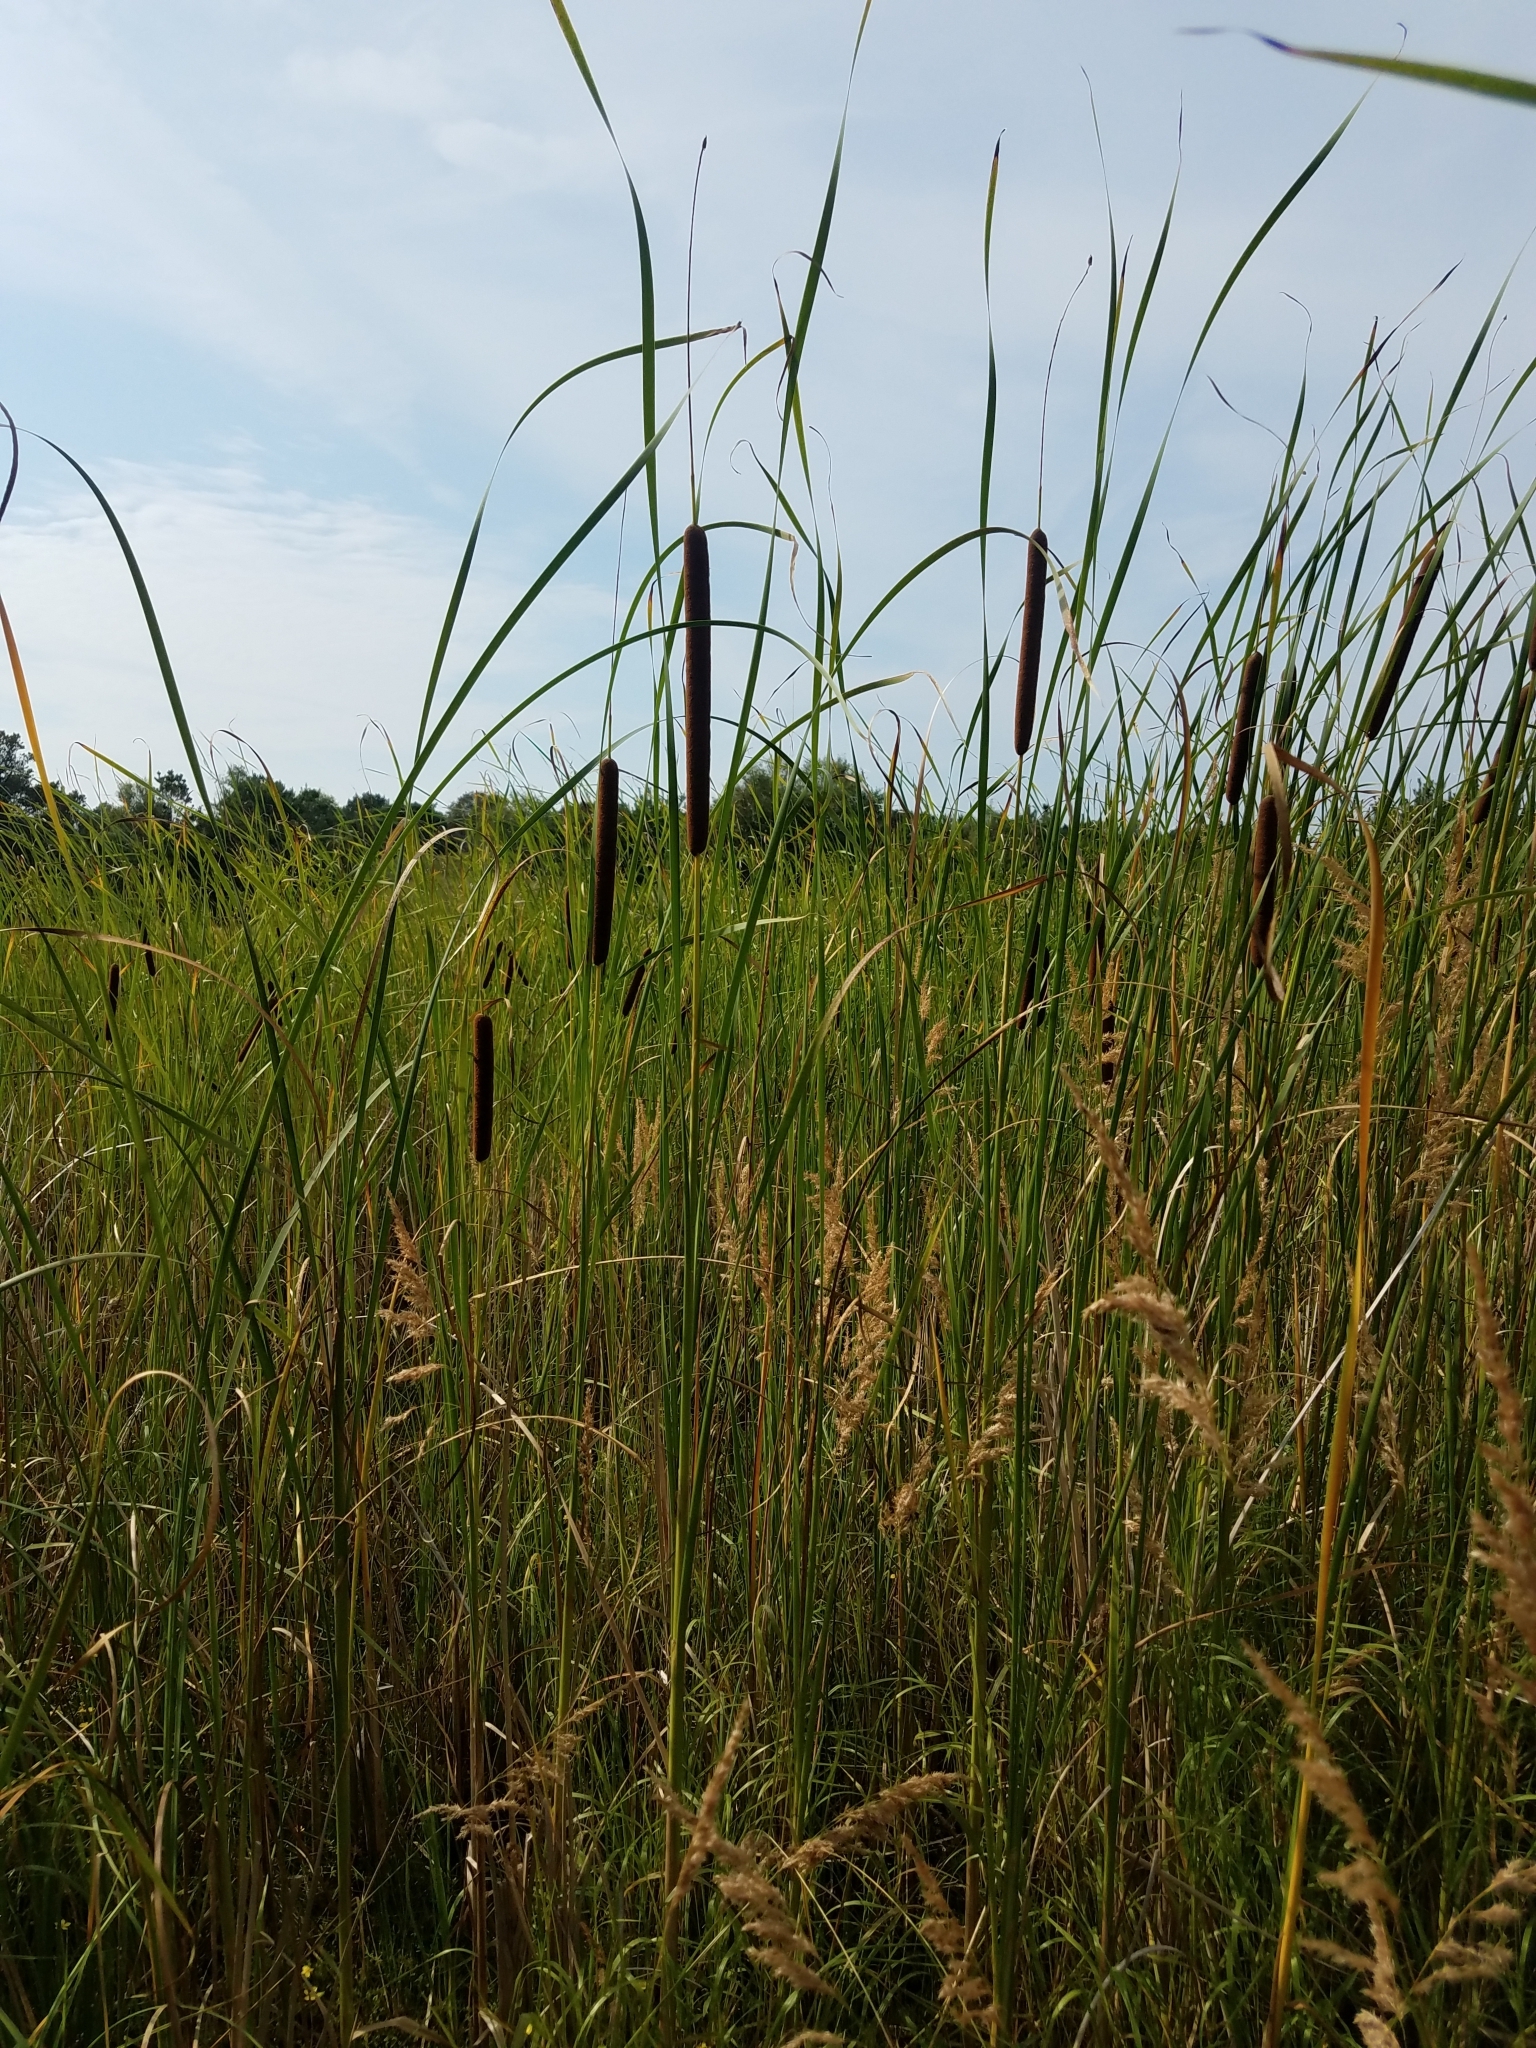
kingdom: Plantae
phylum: Tracheophyta
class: Liliopsida
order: Poales
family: Typhaceae
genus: Typha
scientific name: Typha angustifolia
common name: Lesser bulrush
